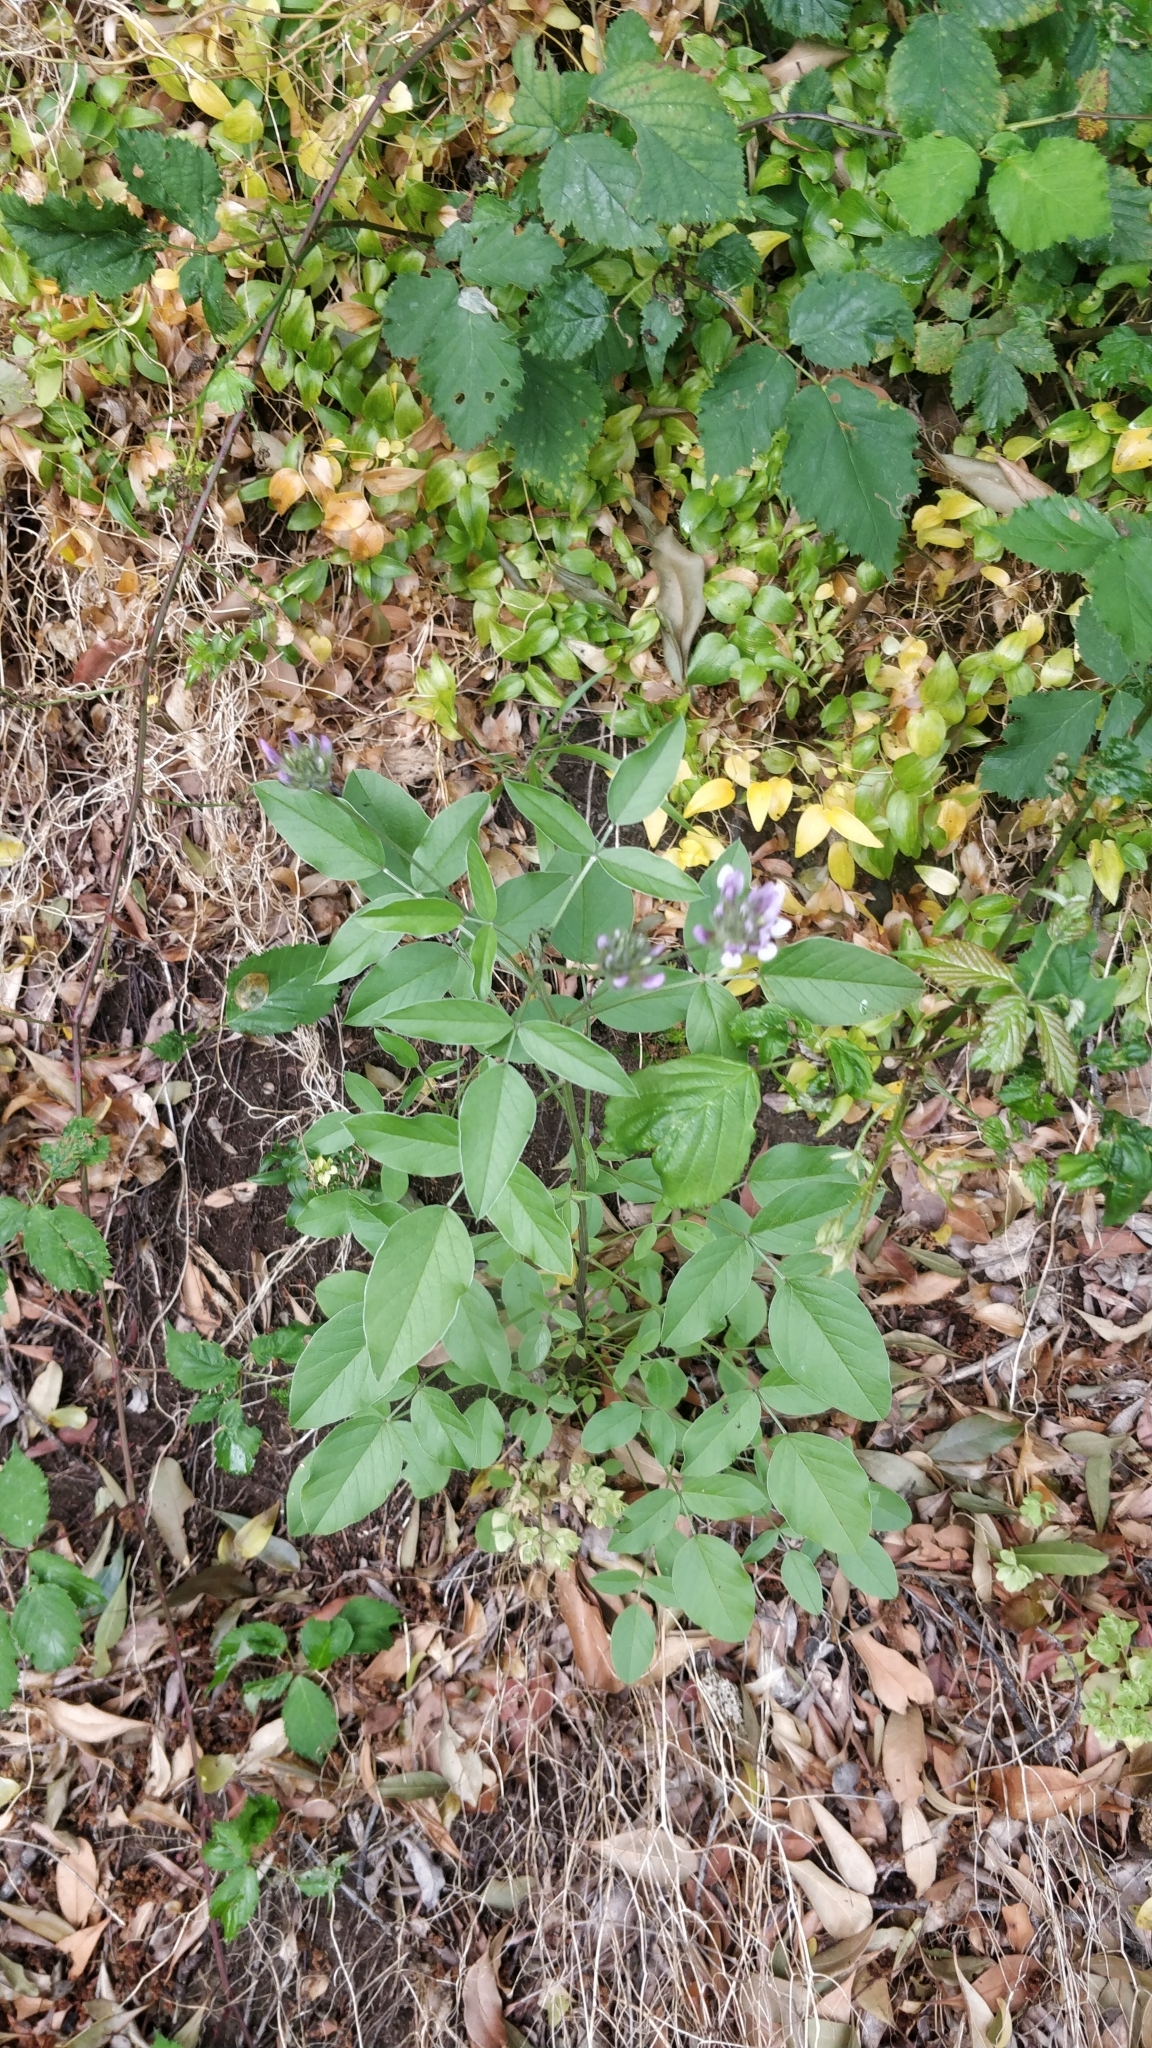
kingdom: Plantae
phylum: Tracheophyta
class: Magnoliopsida
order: Fabales
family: Fabaceae
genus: Bituminaria
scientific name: Bituminaria bituminosa
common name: Arabian pea
